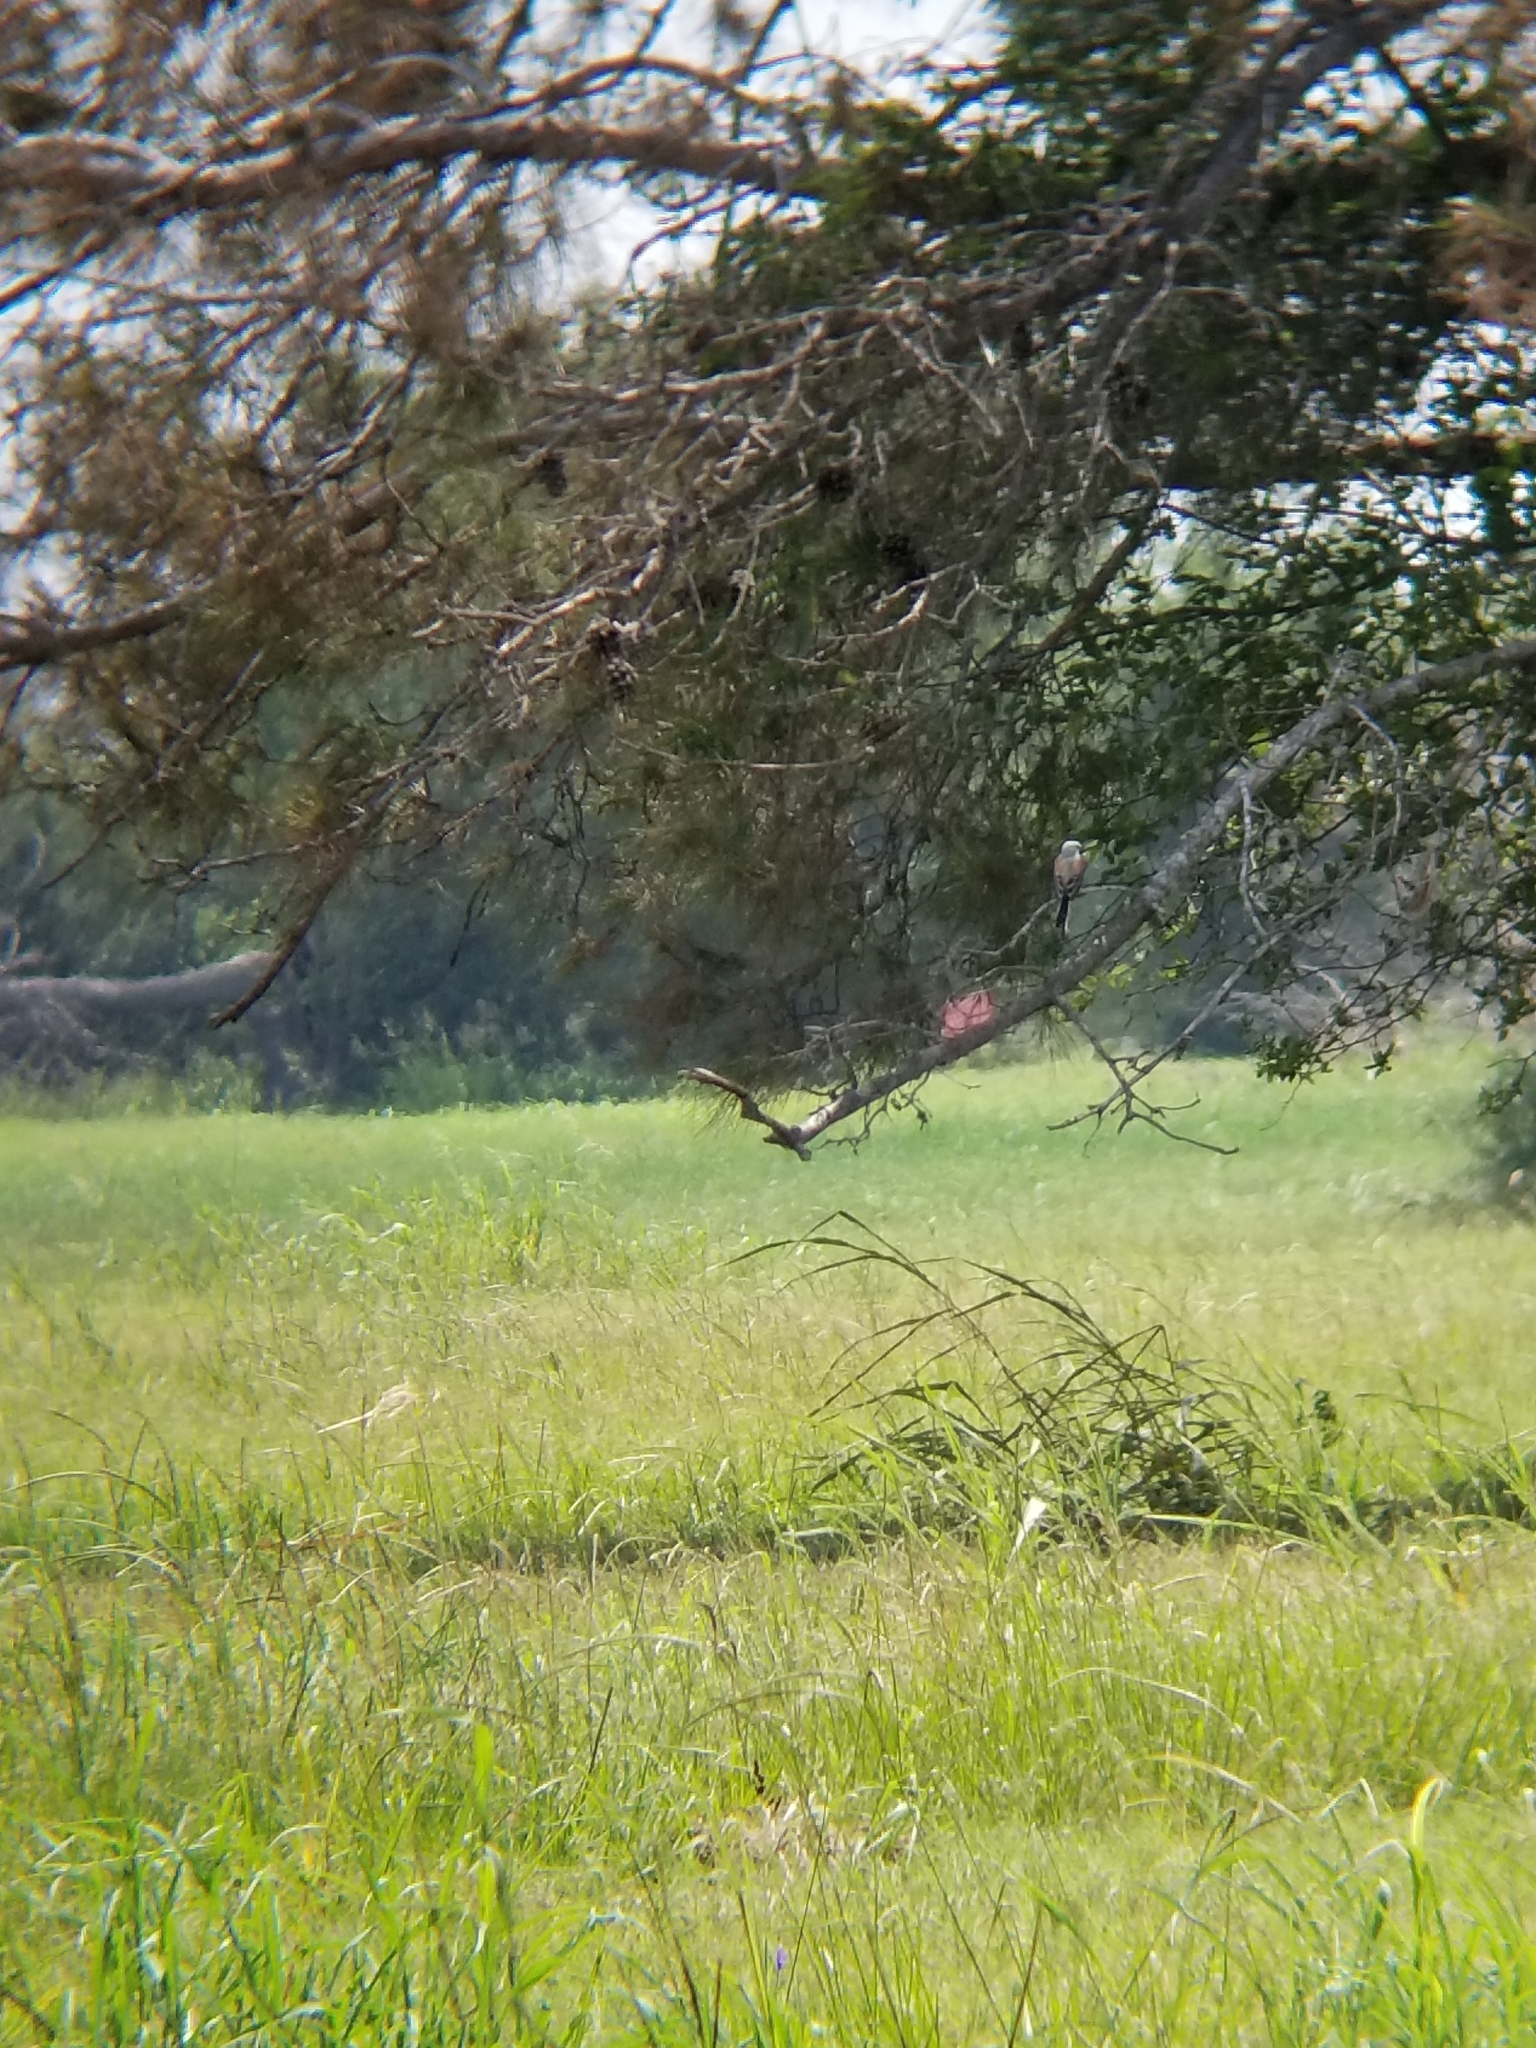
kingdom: Animalia
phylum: Chordata
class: Aves
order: Passeriformes
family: Tyrannidae
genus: Tyrannus
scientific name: Tyrannus forficatus
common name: Scissor-tailed flycatcher
